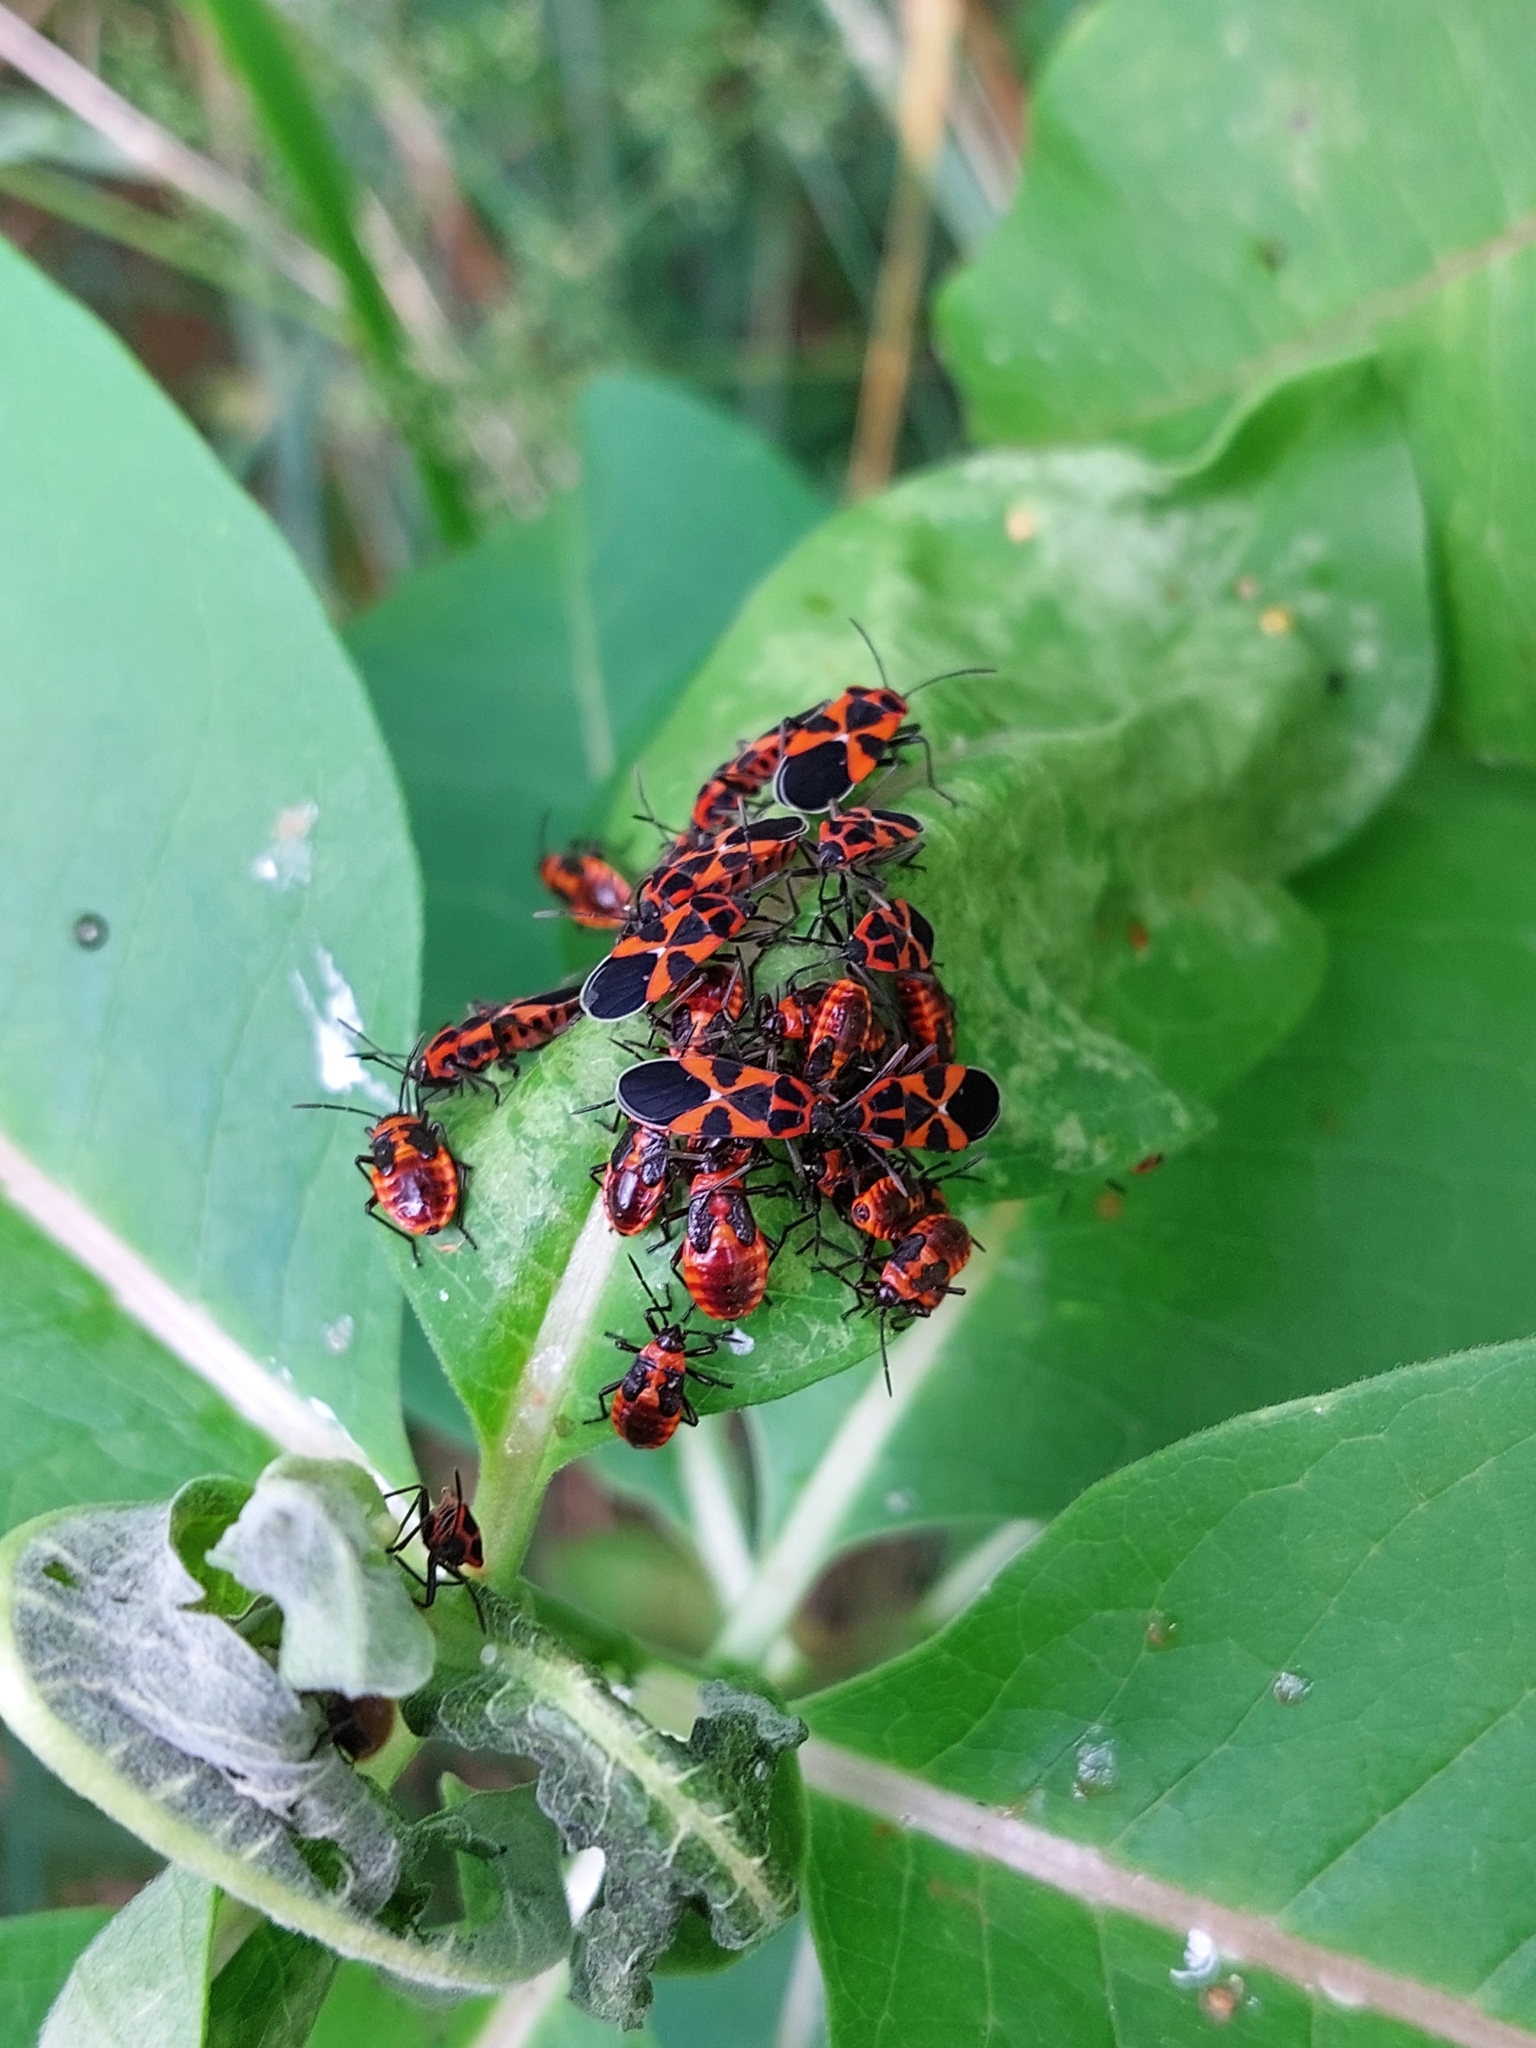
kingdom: Animalia
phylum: Arthropoda
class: Insecta
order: Hemiptera
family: Lygaeidae
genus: Tropidothorax
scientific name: Tropidothorax leucopterus
